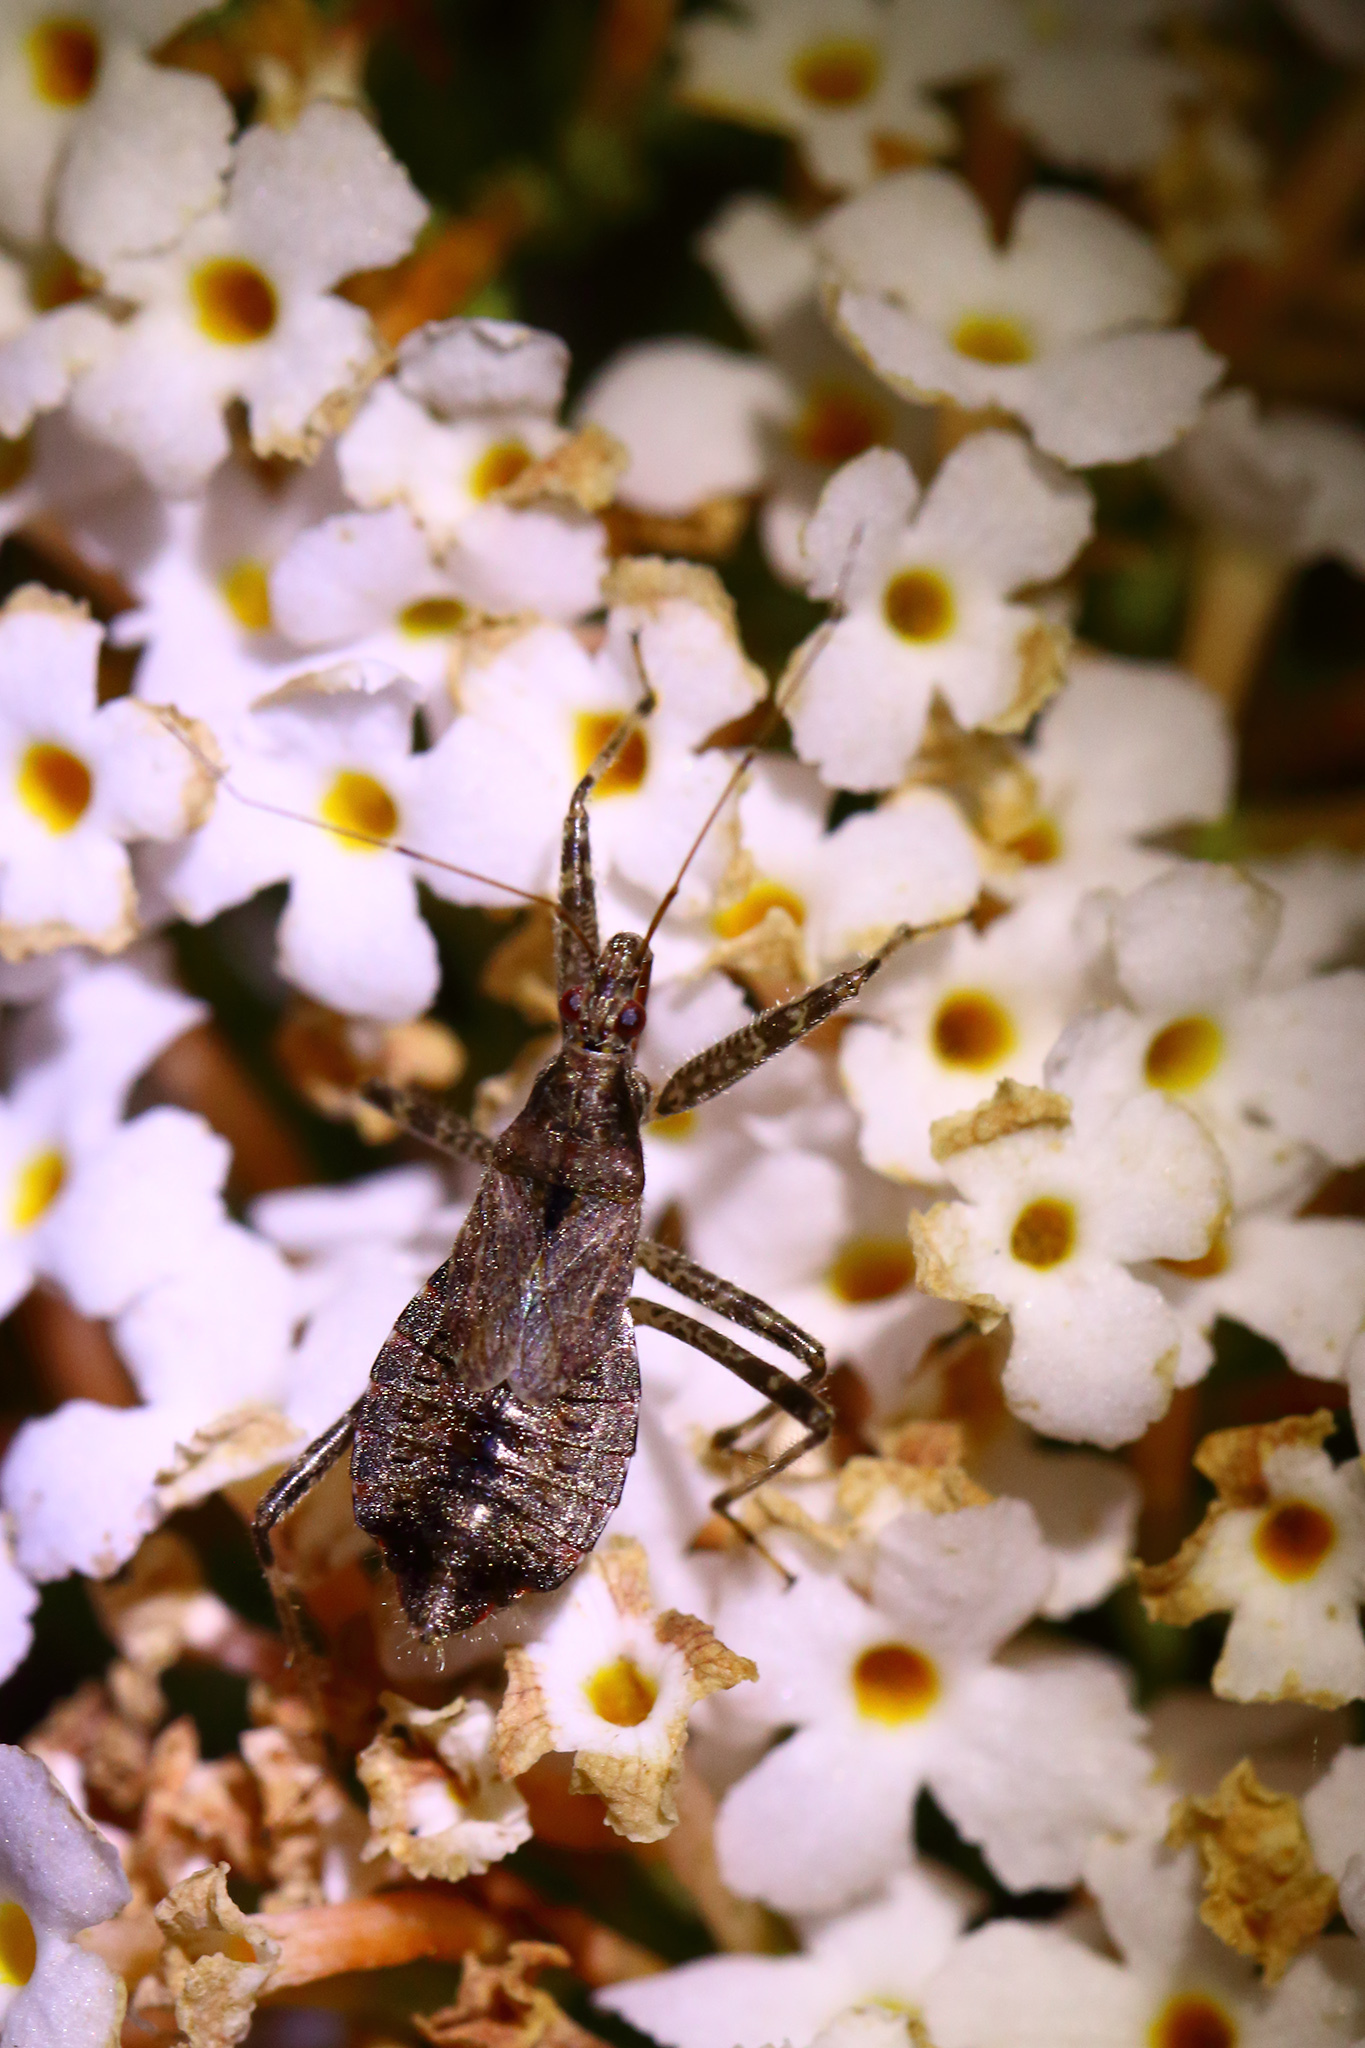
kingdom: Animalia
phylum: Arthropoda
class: Insecta
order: Hemiptera
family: Nabidae
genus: Himacerus
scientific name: Himacerus mirmicoides
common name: Ant damsel bug
